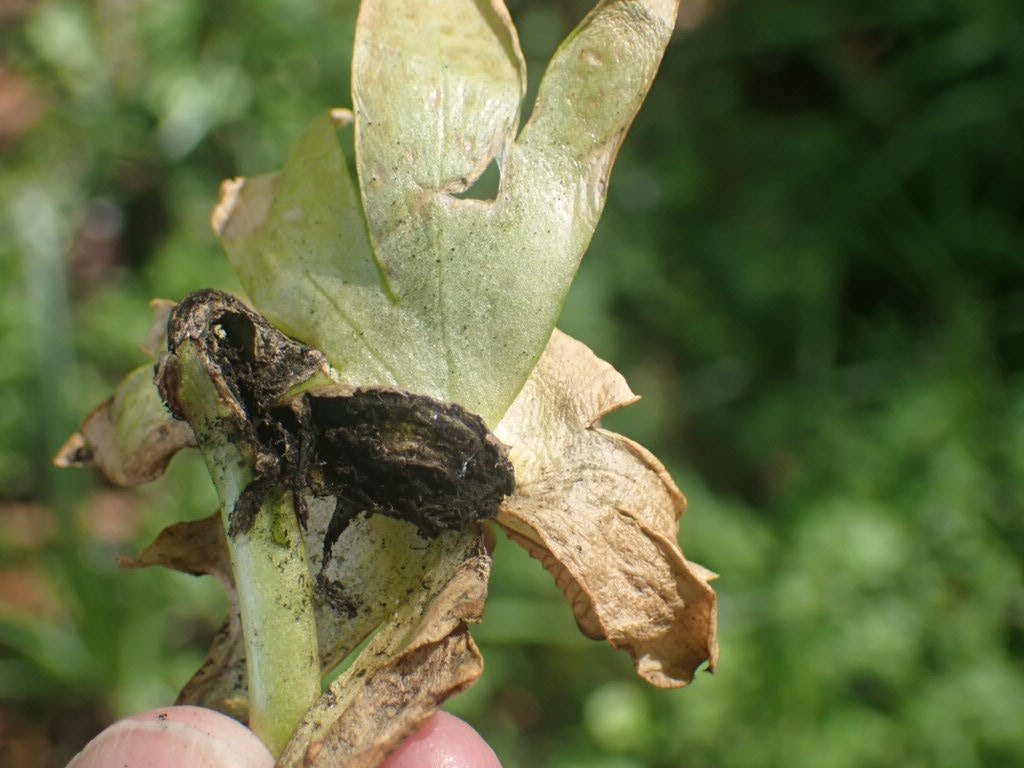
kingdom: Fungi
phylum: Basidiomycota
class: Ustilaginomycetes
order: Urocystidales
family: Urocystidaceae
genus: Urocystis
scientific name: Urocystis eranthidis
